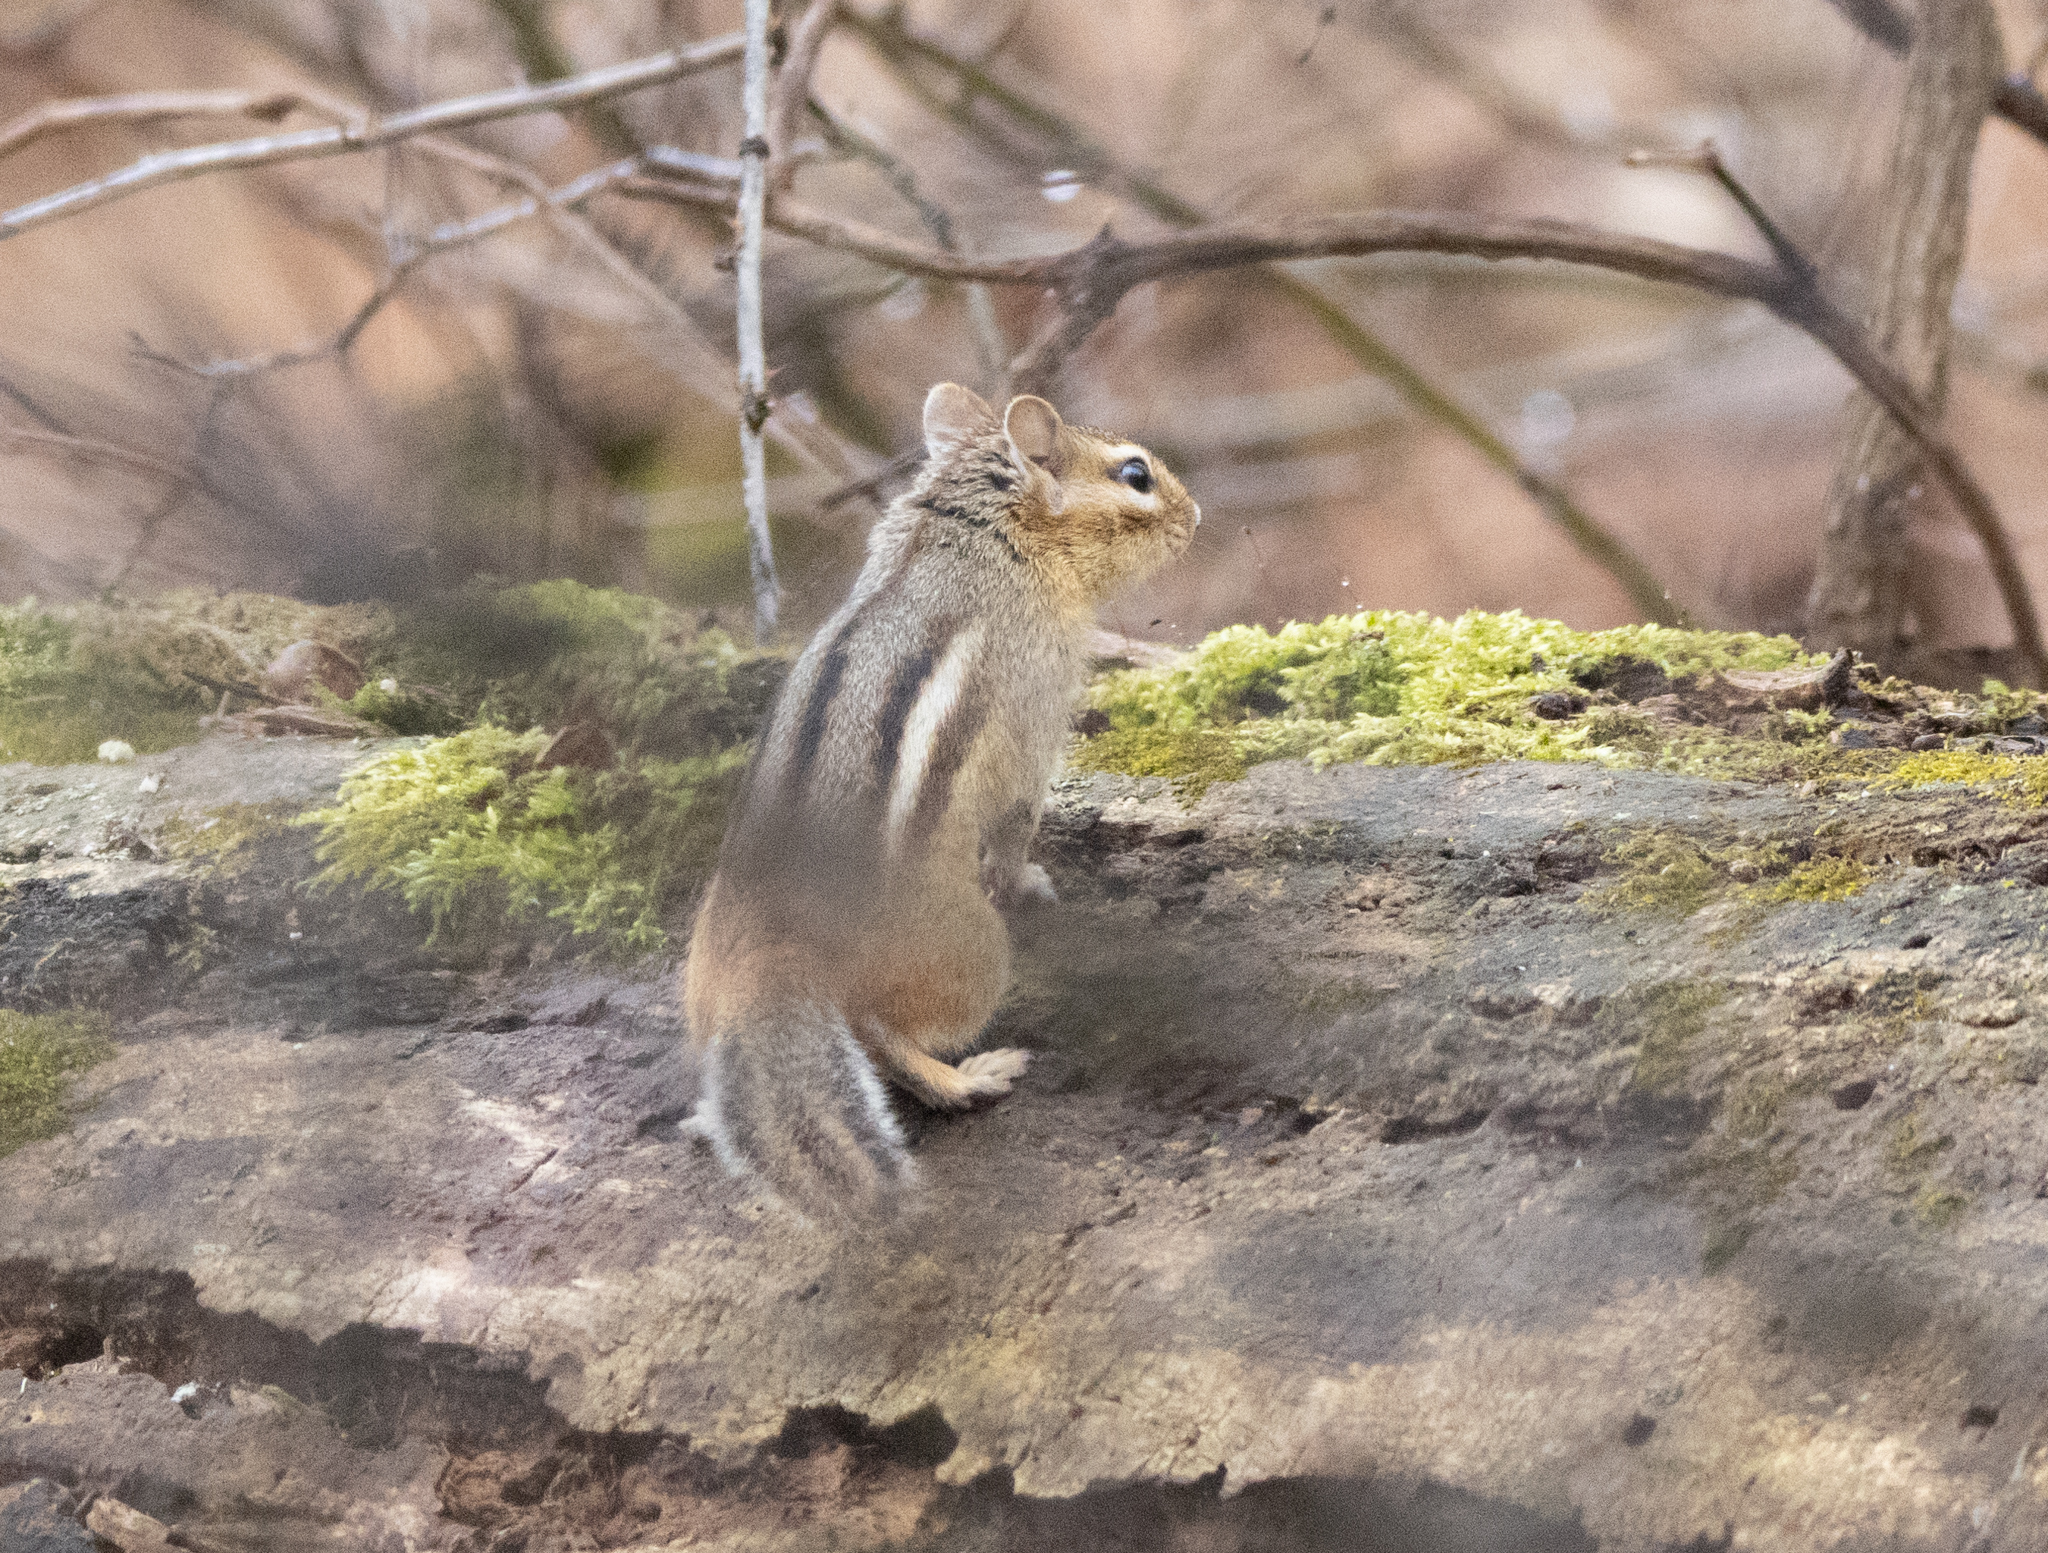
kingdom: Animalia
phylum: Chordata
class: Mammalia
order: Rodentia
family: Sciuridae
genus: Tamias
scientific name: Tamias striatus
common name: Eastern chipmunk
